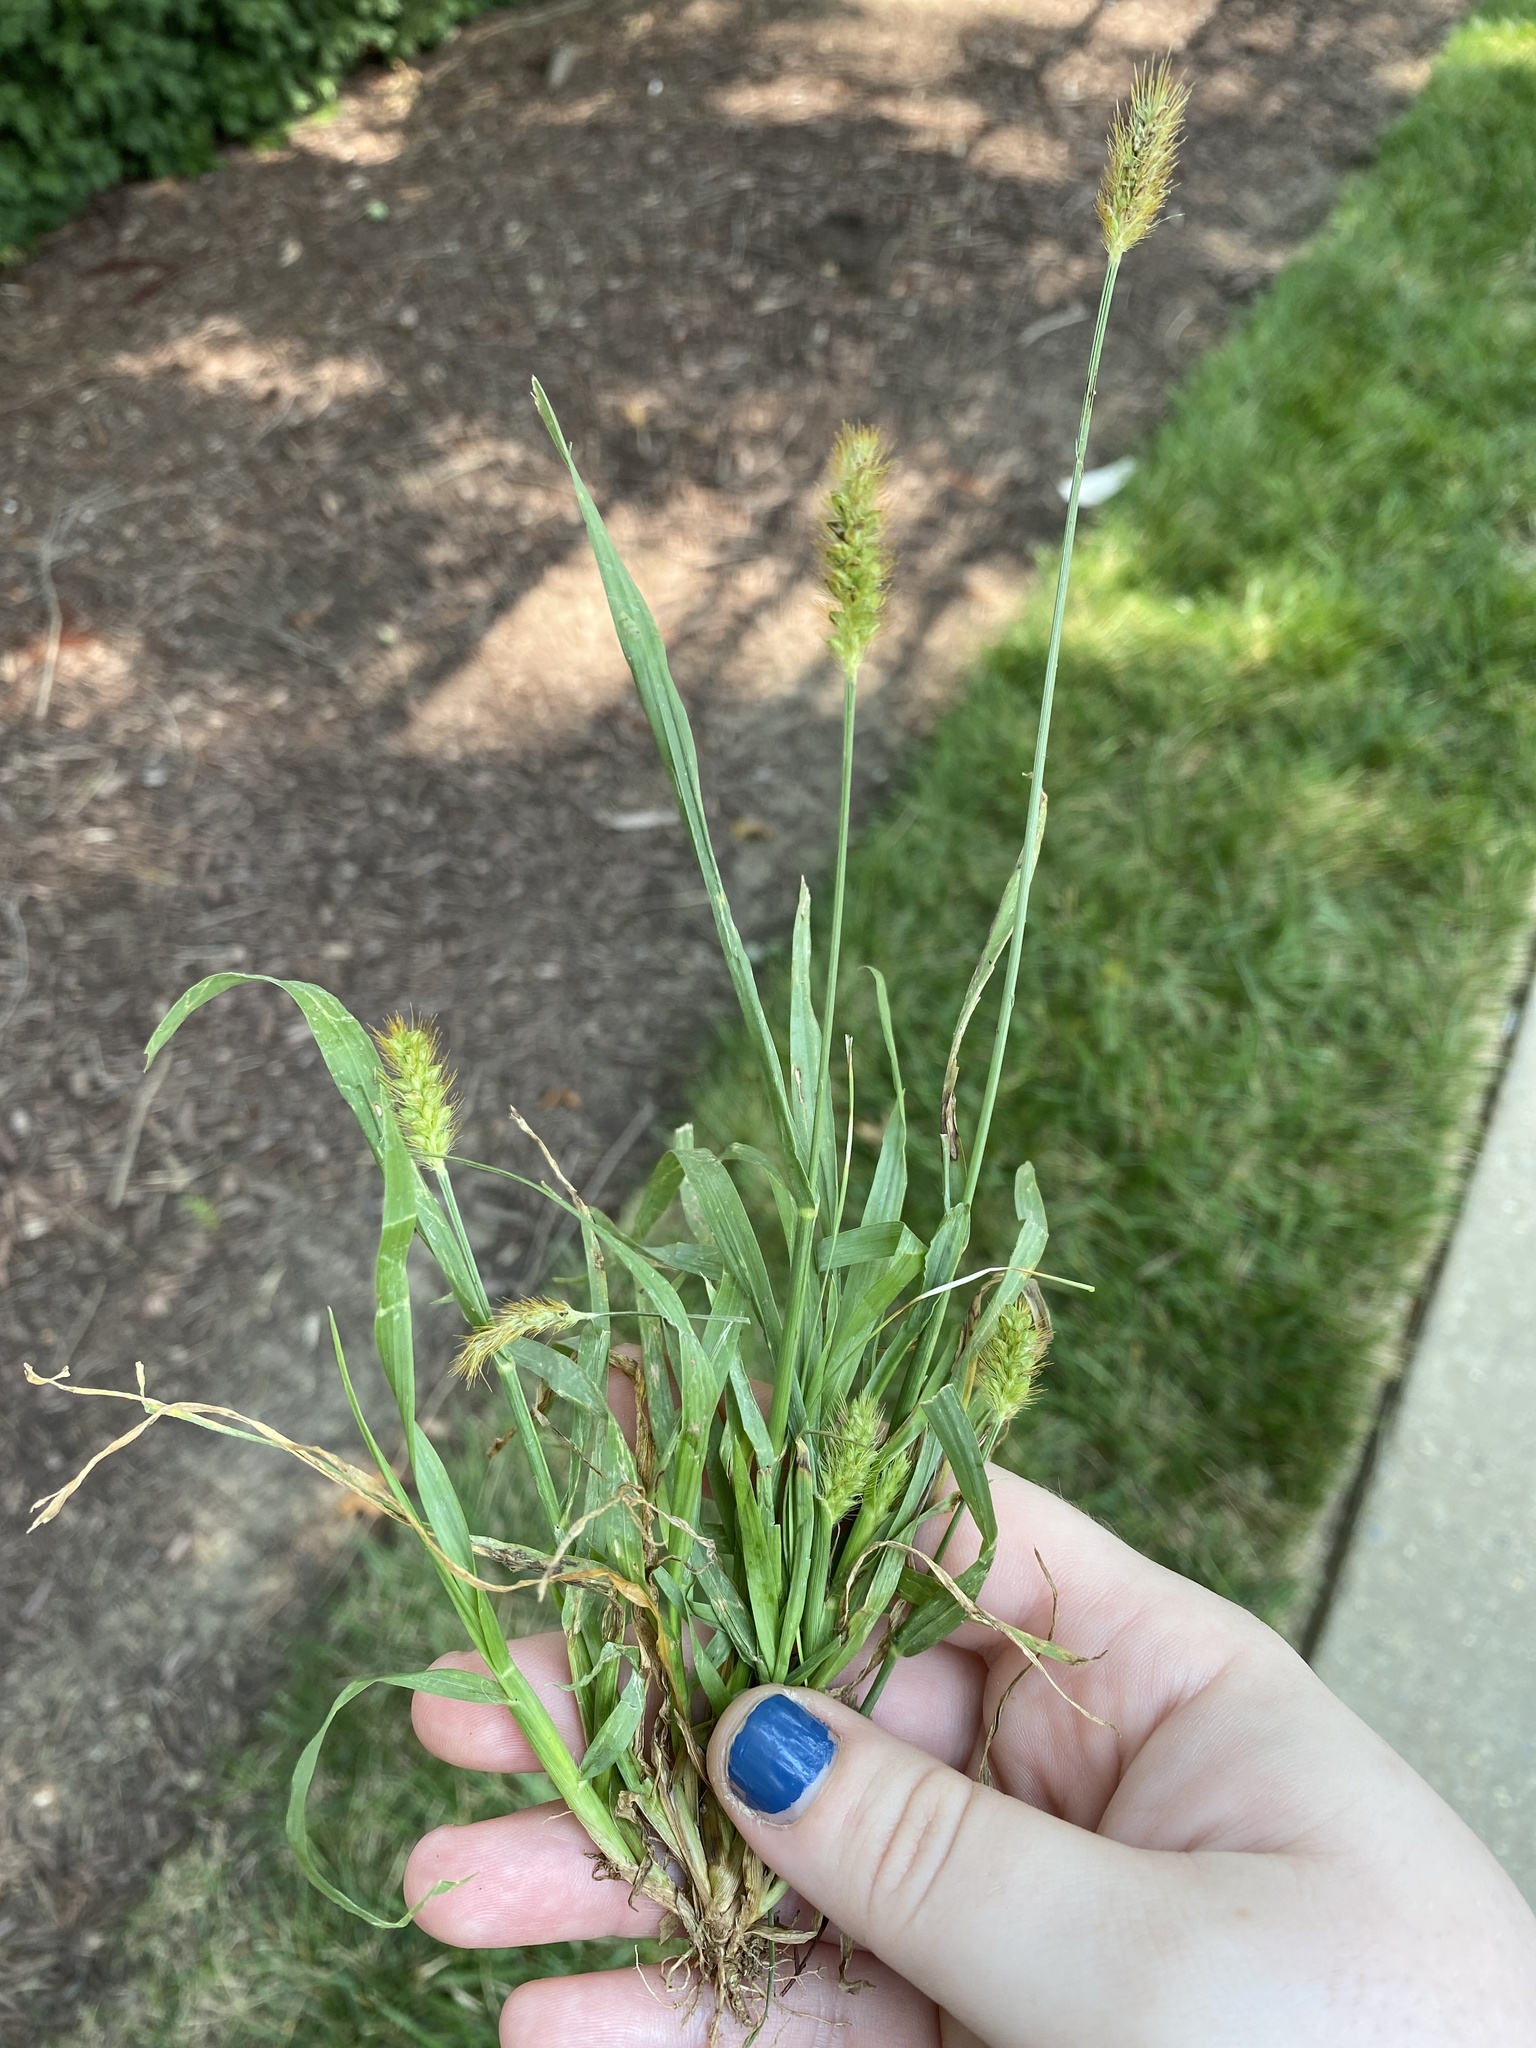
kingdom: Plantae
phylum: Tracheophyta
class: Liliopsida
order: Poales
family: Poaceae
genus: Setaria
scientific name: Setaria pumila
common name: Yellow bristle-grass
